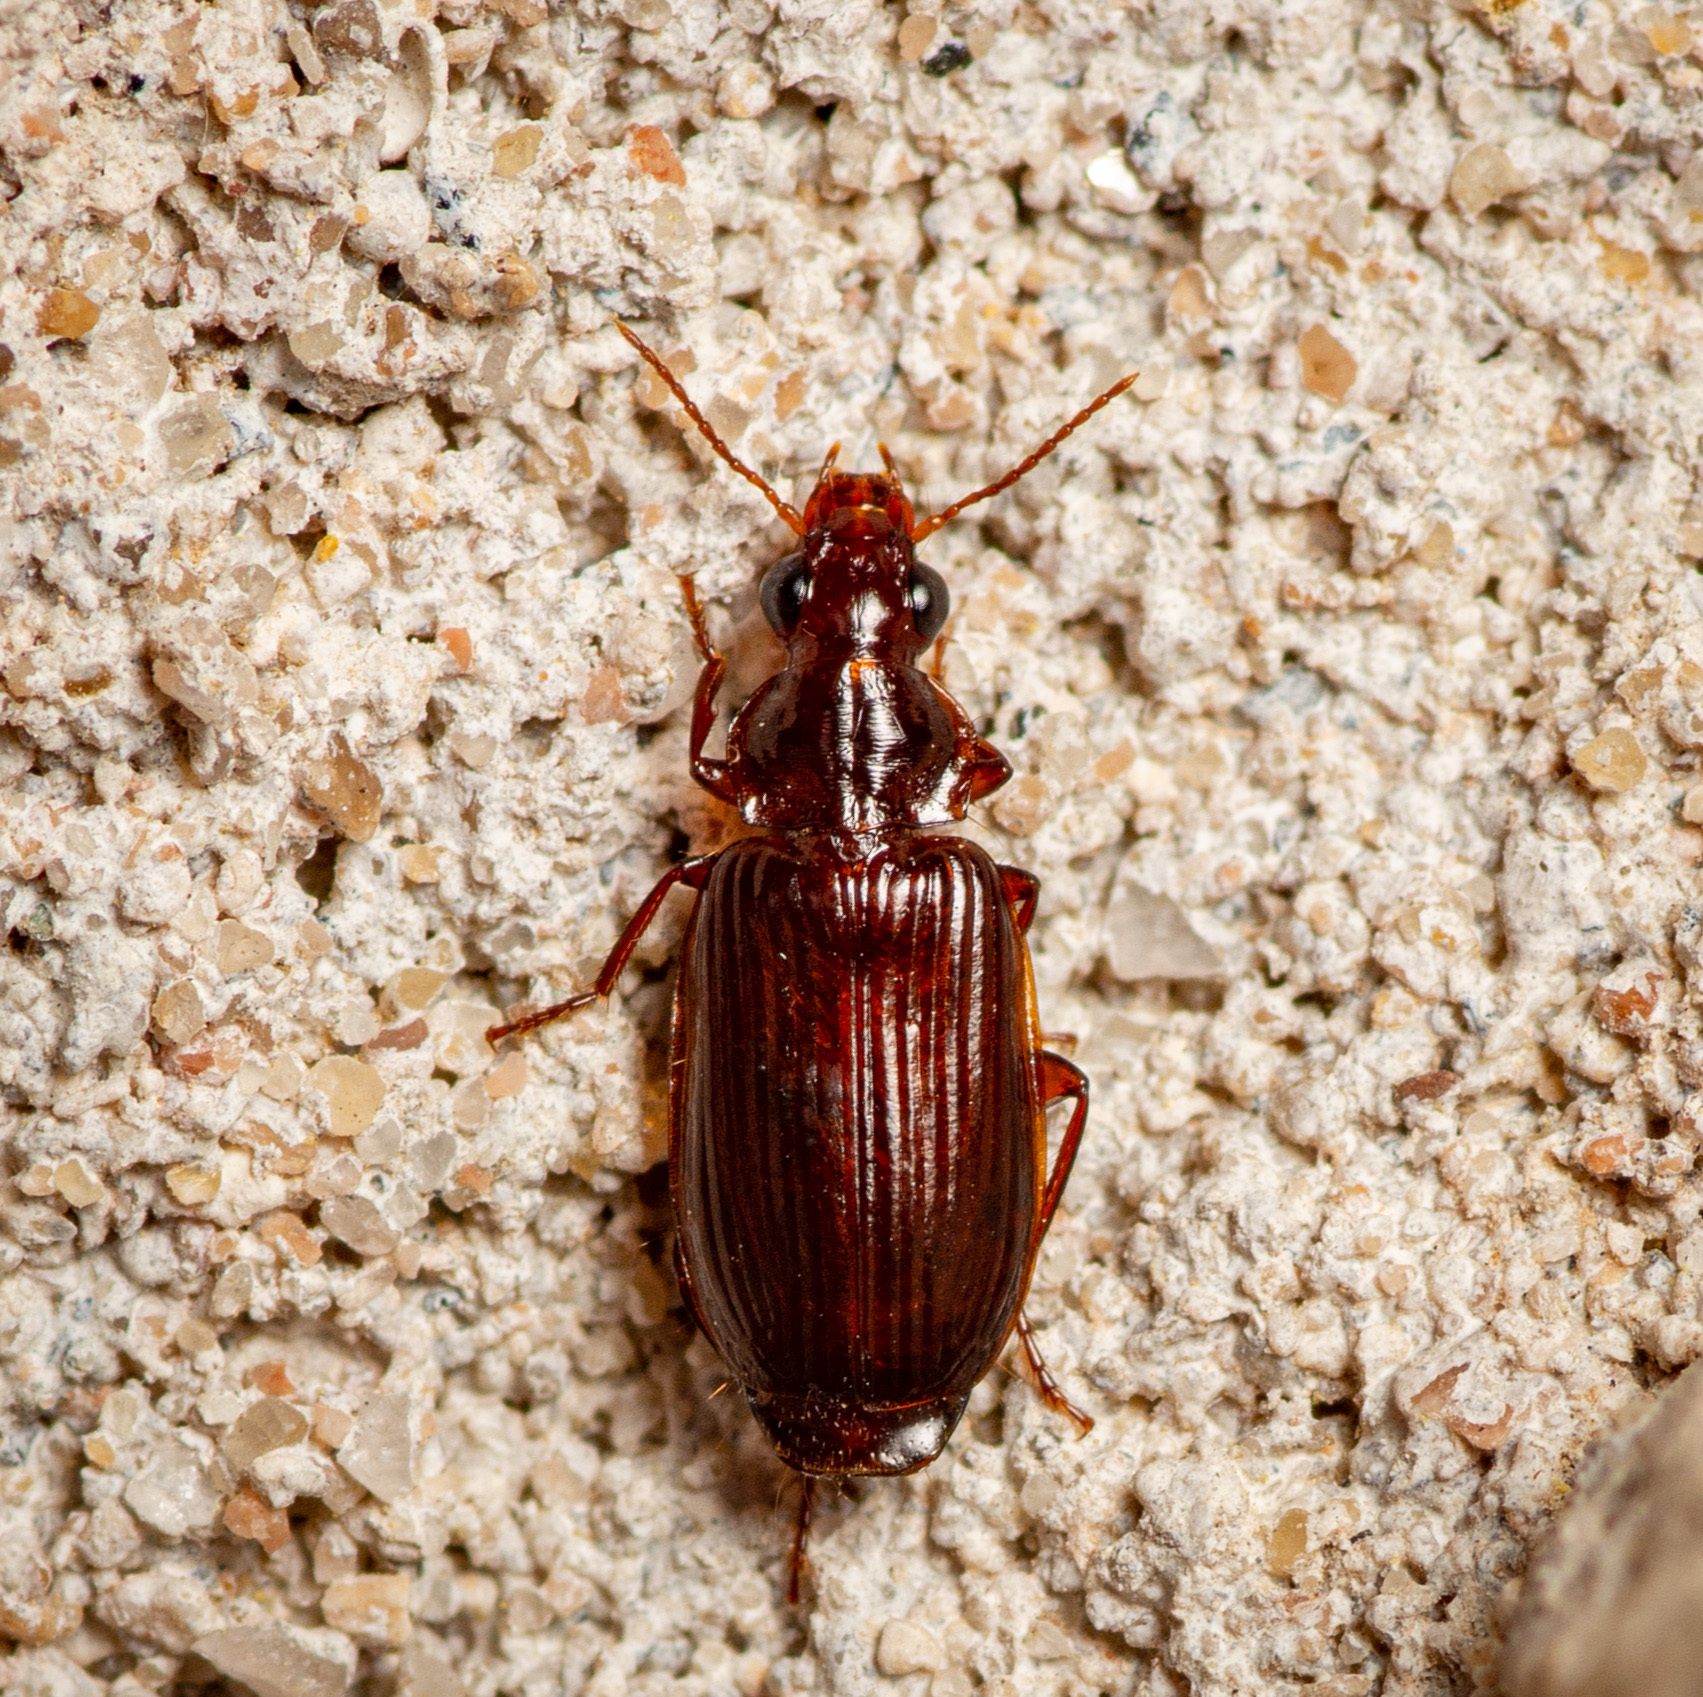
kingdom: Animalia
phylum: Arthropoda
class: Insecta
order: Coleoptera
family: Carabidae
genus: Plochionus
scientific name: Plochionus timidus
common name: Timid harp ground beetle
